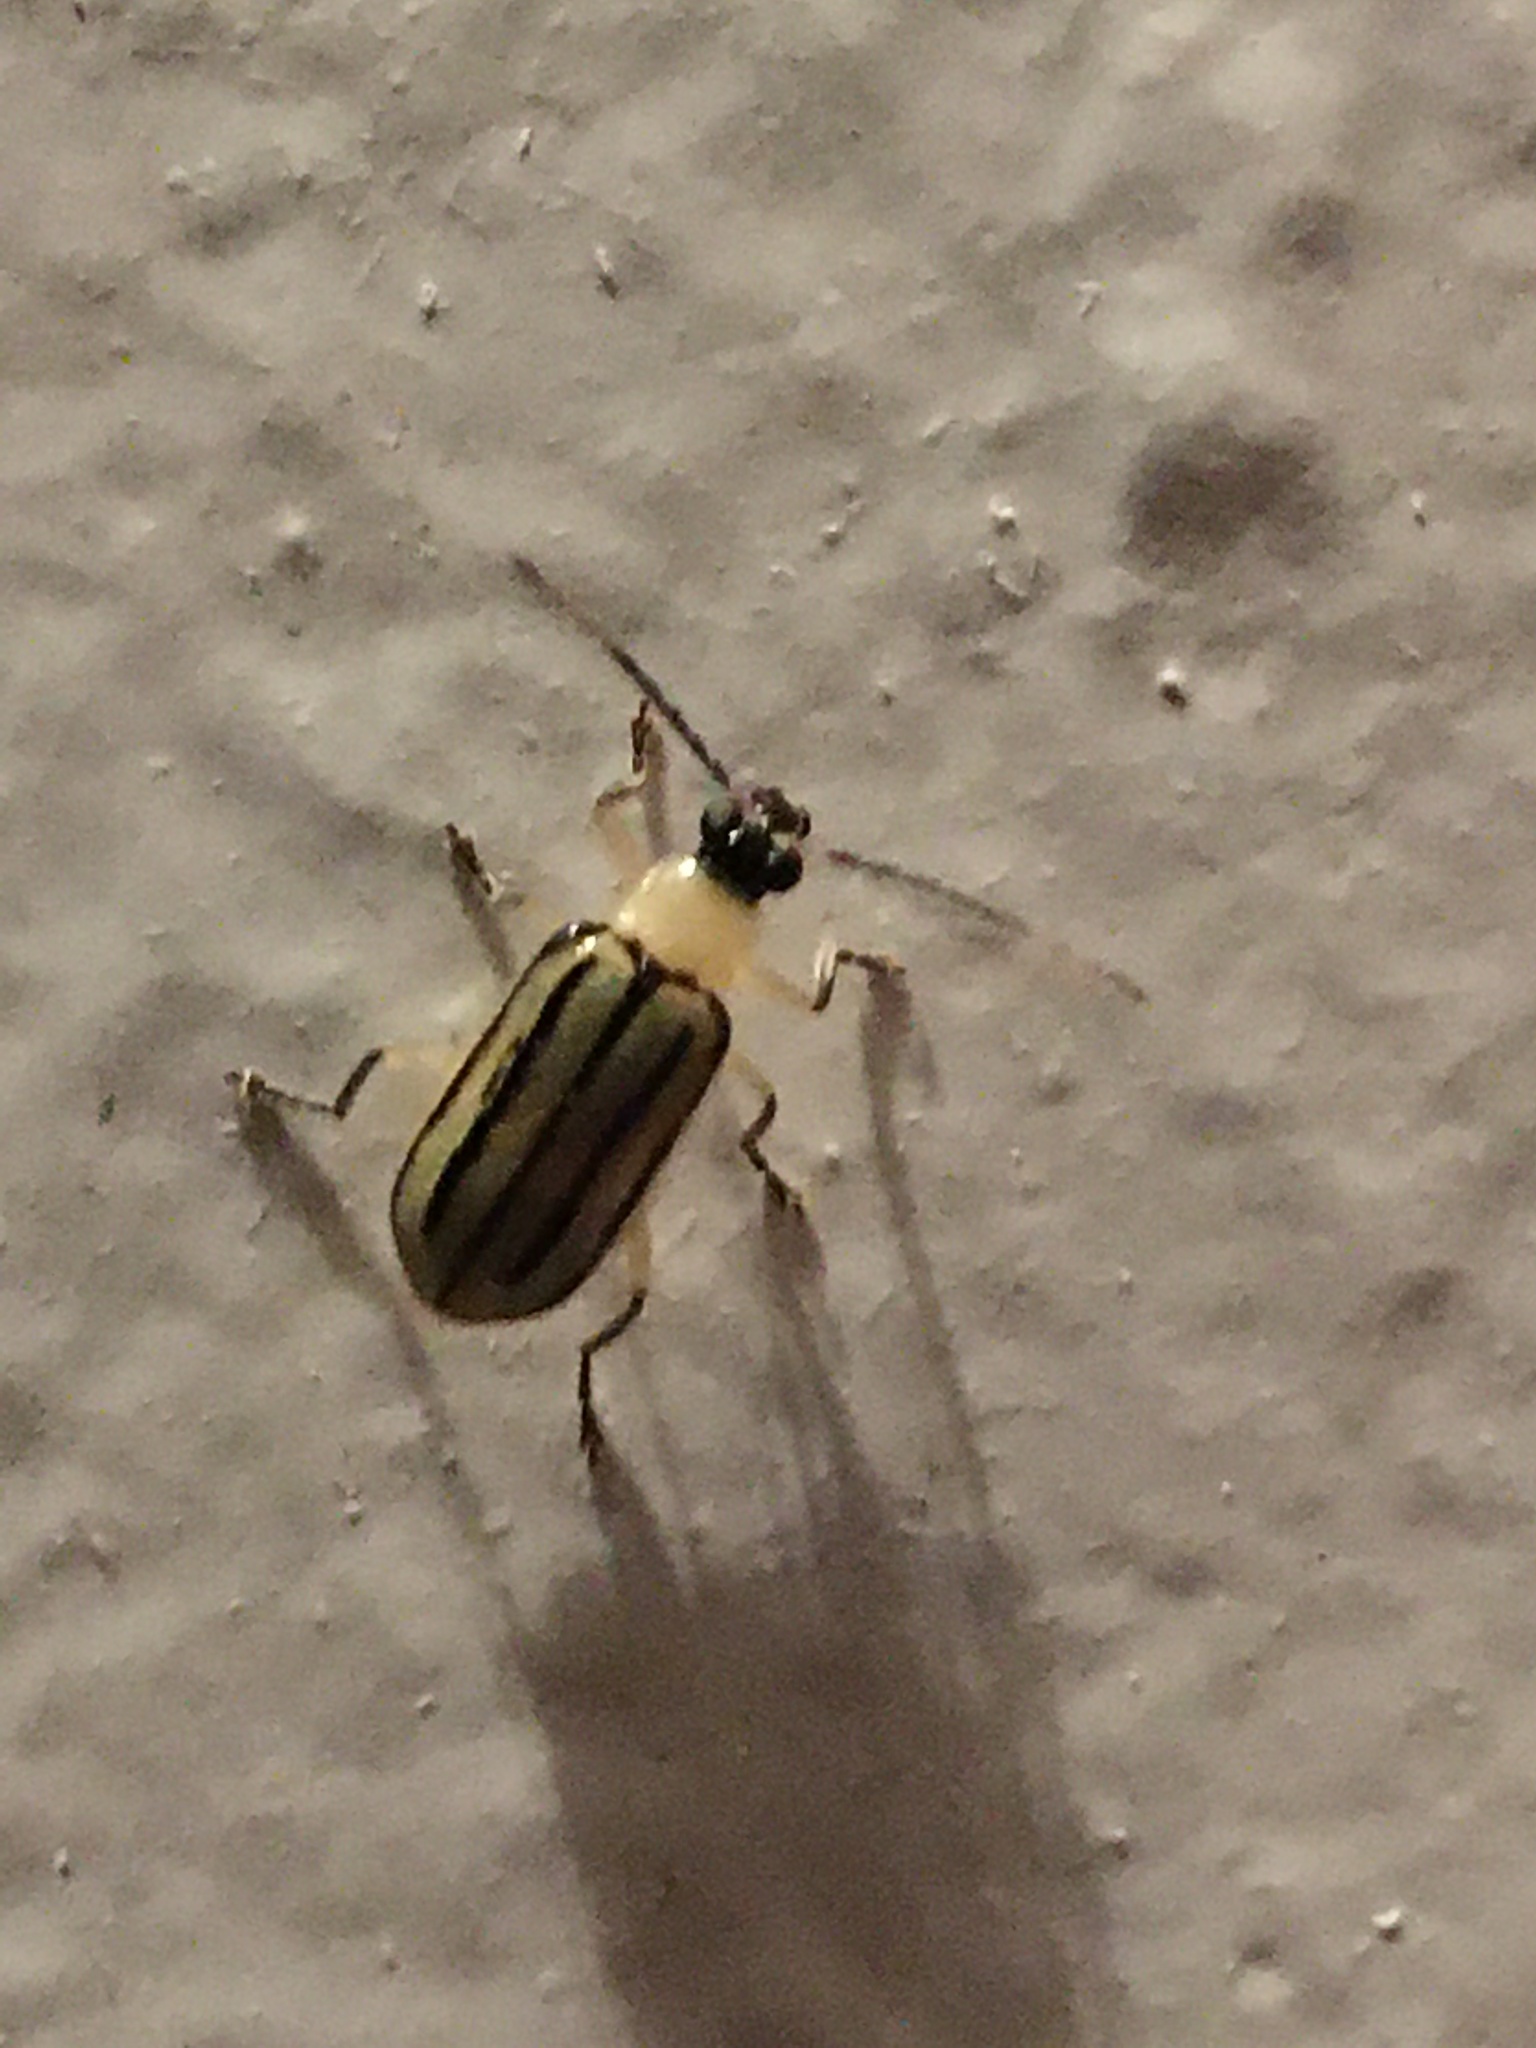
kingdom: Animalia
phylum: Arthropoda
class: Insecta
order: Coleoptera
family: Chrysomelidae
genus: Amphelasma
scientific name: Amphelasma
